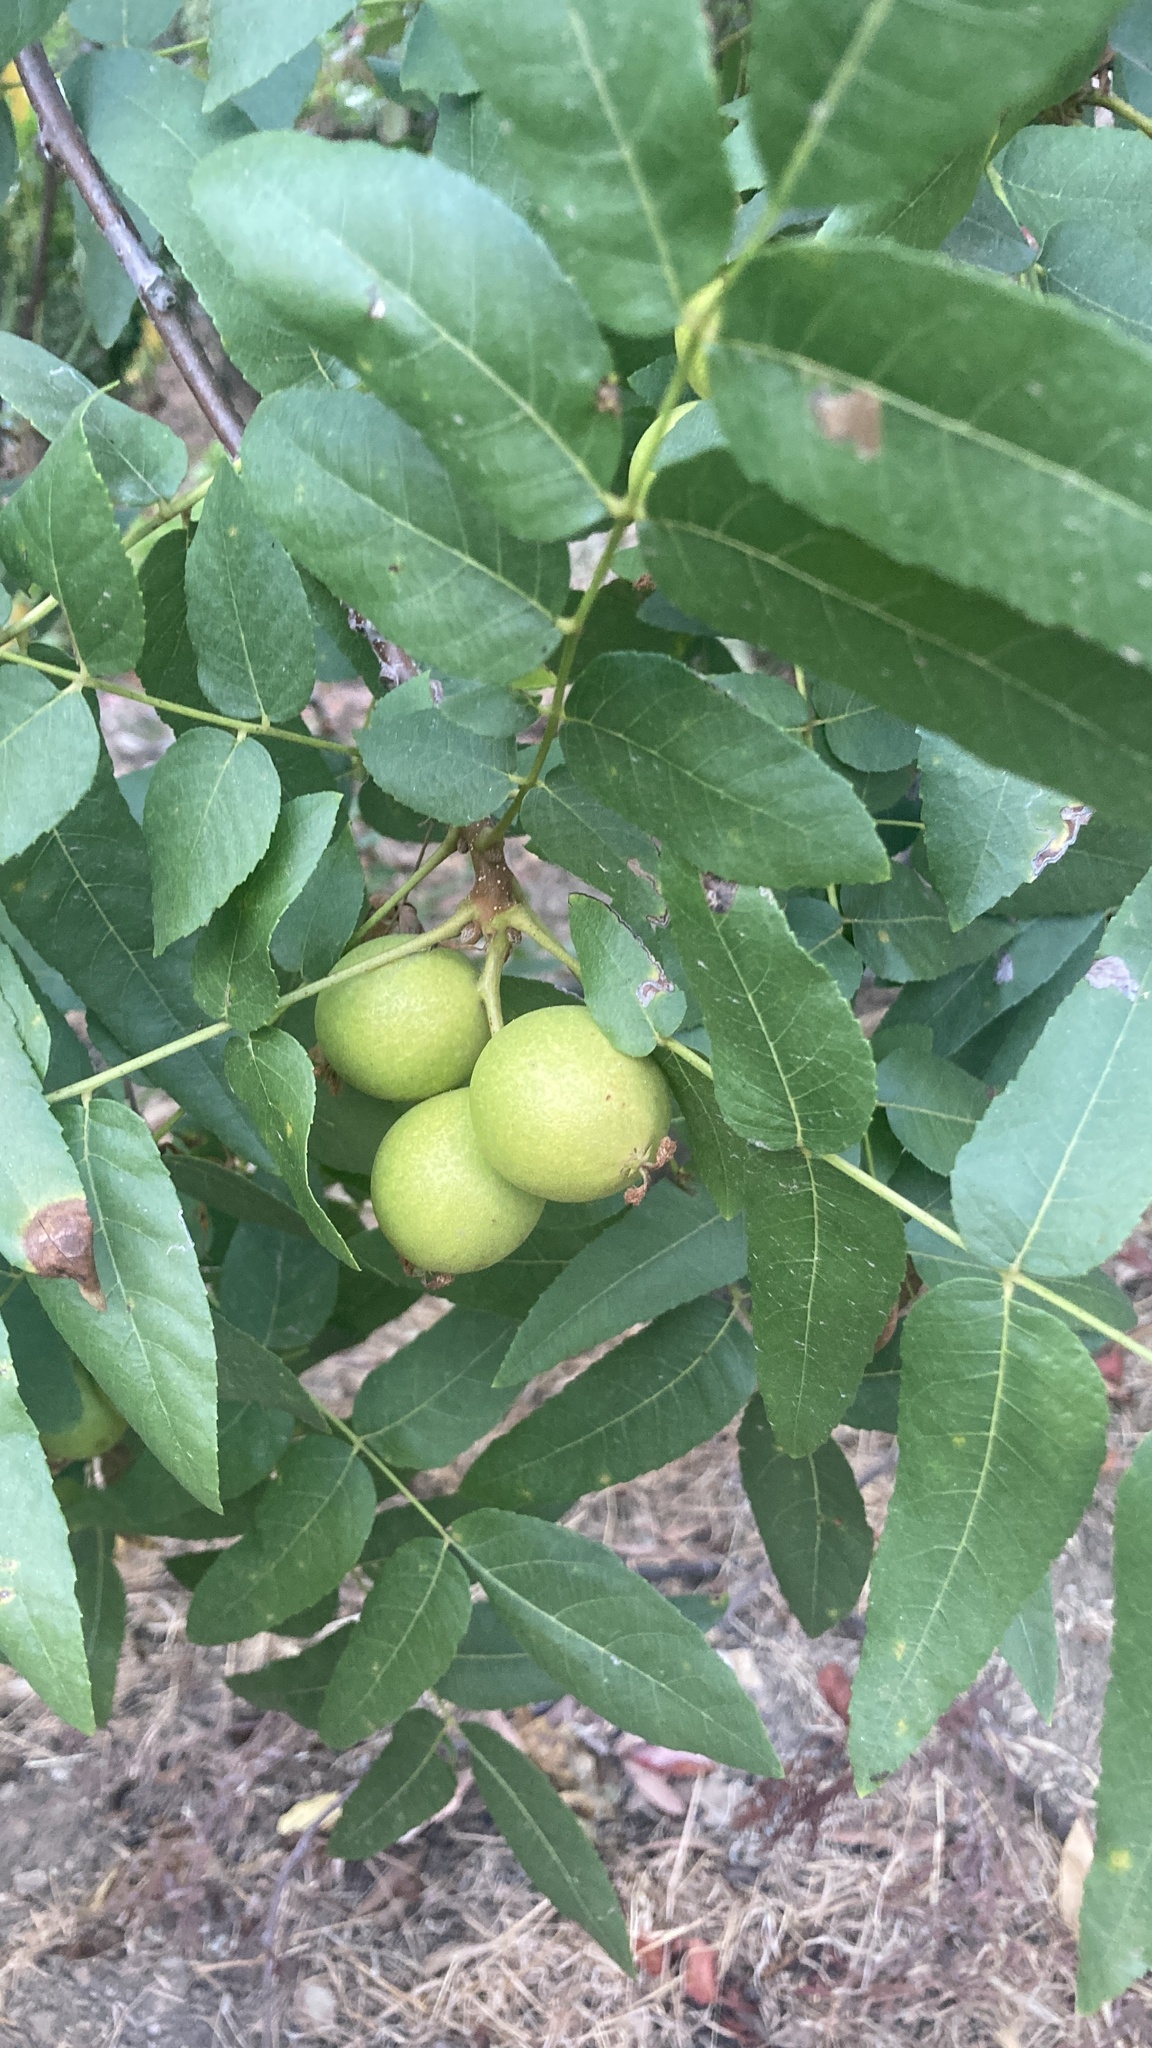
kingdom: Plantae
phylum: Tracheophyta
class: Magnoliopsida
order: Fagales
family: Juglandaceae
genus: Juglans
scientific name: Juglans californica
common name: Southern california black walnut
